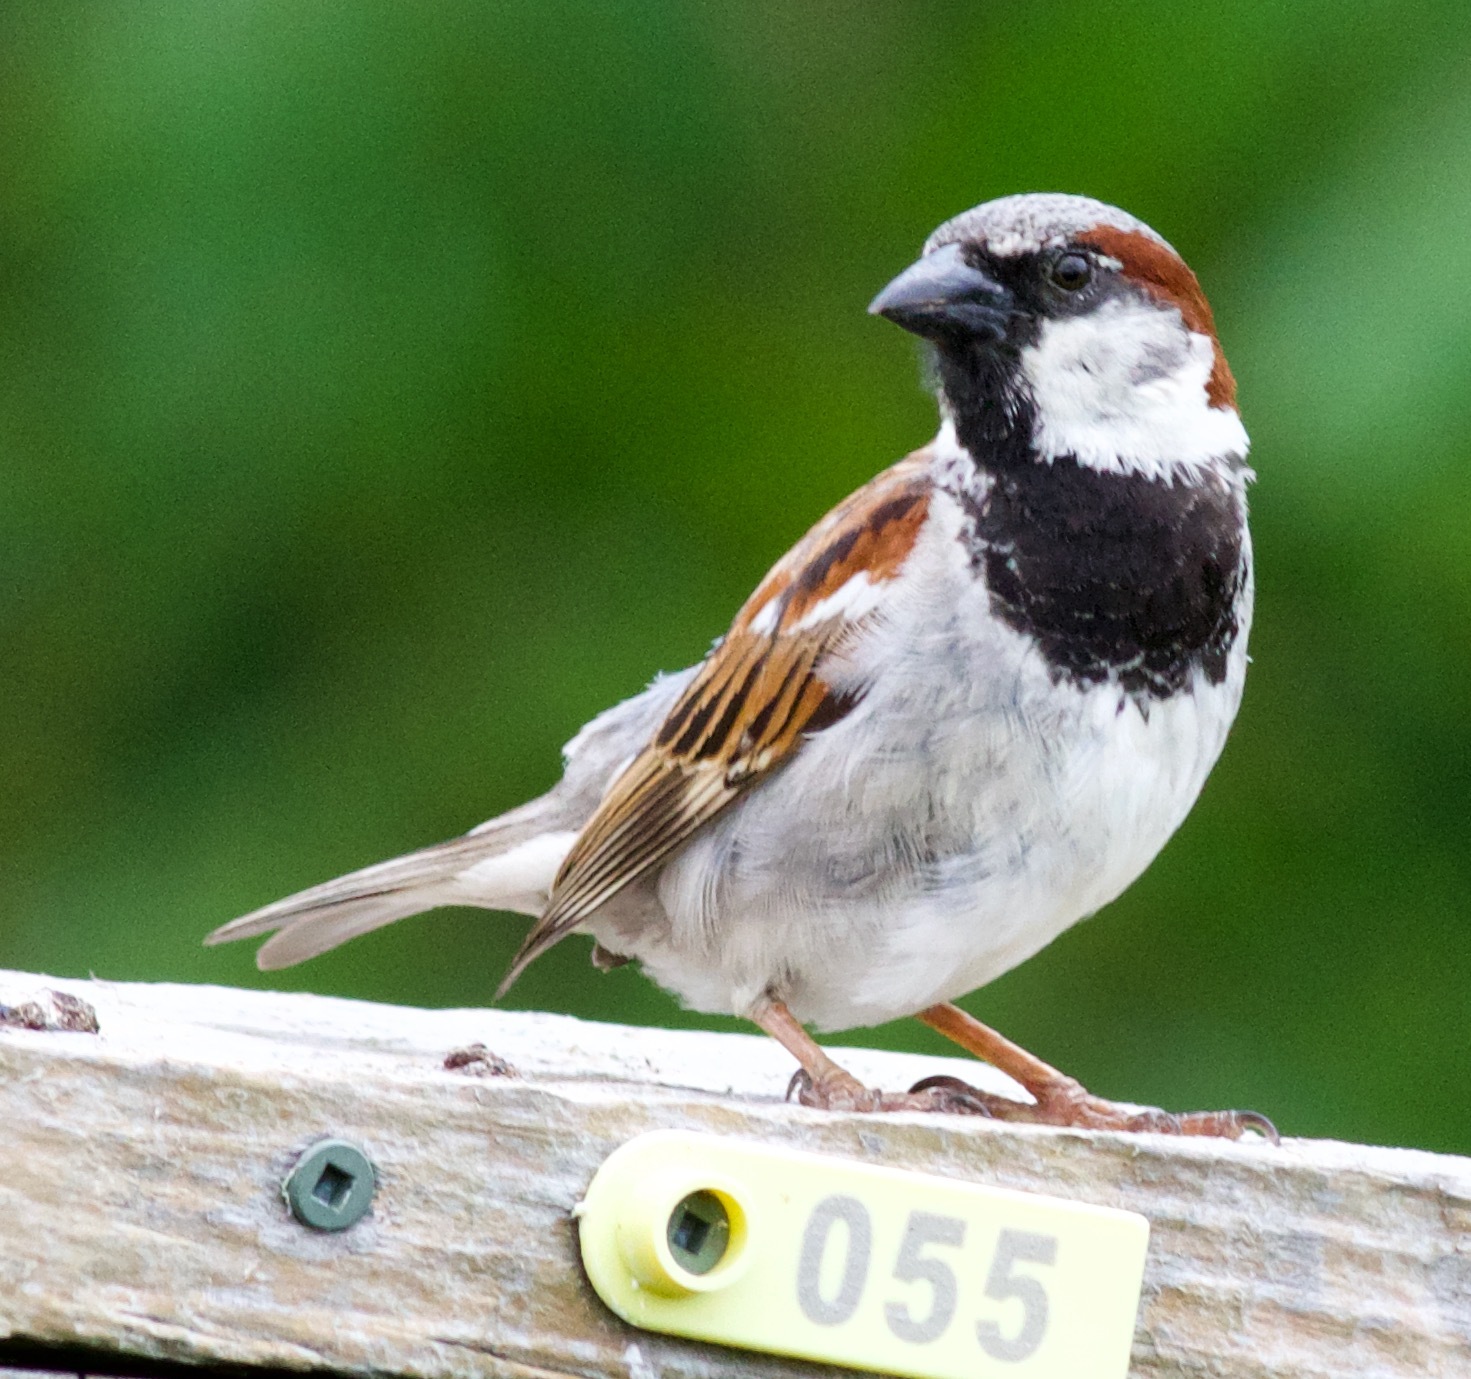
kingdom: Animalia
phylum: Chordata
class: Aves
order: Passeriformes
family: Passeridae
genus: Passer
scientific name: Passer domesticus
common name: House sparrow
